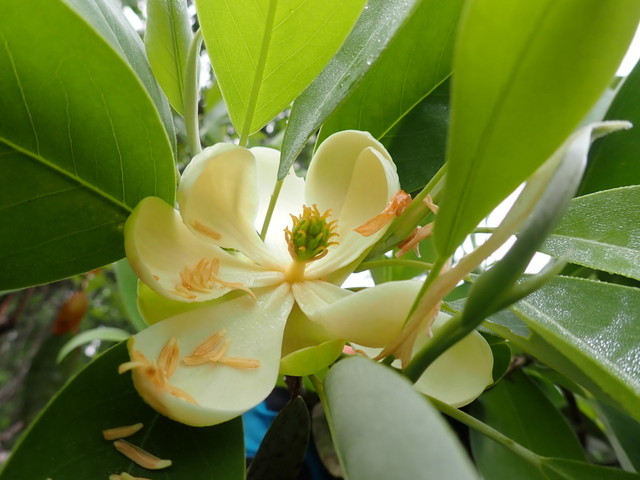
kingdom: Plantae
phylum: Tracheophyta
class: Magnoliopsida
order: Magnoliales
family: Magnoliaceae
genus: Magnolia
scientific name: Magnolia virginiana
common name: Swamp bay
